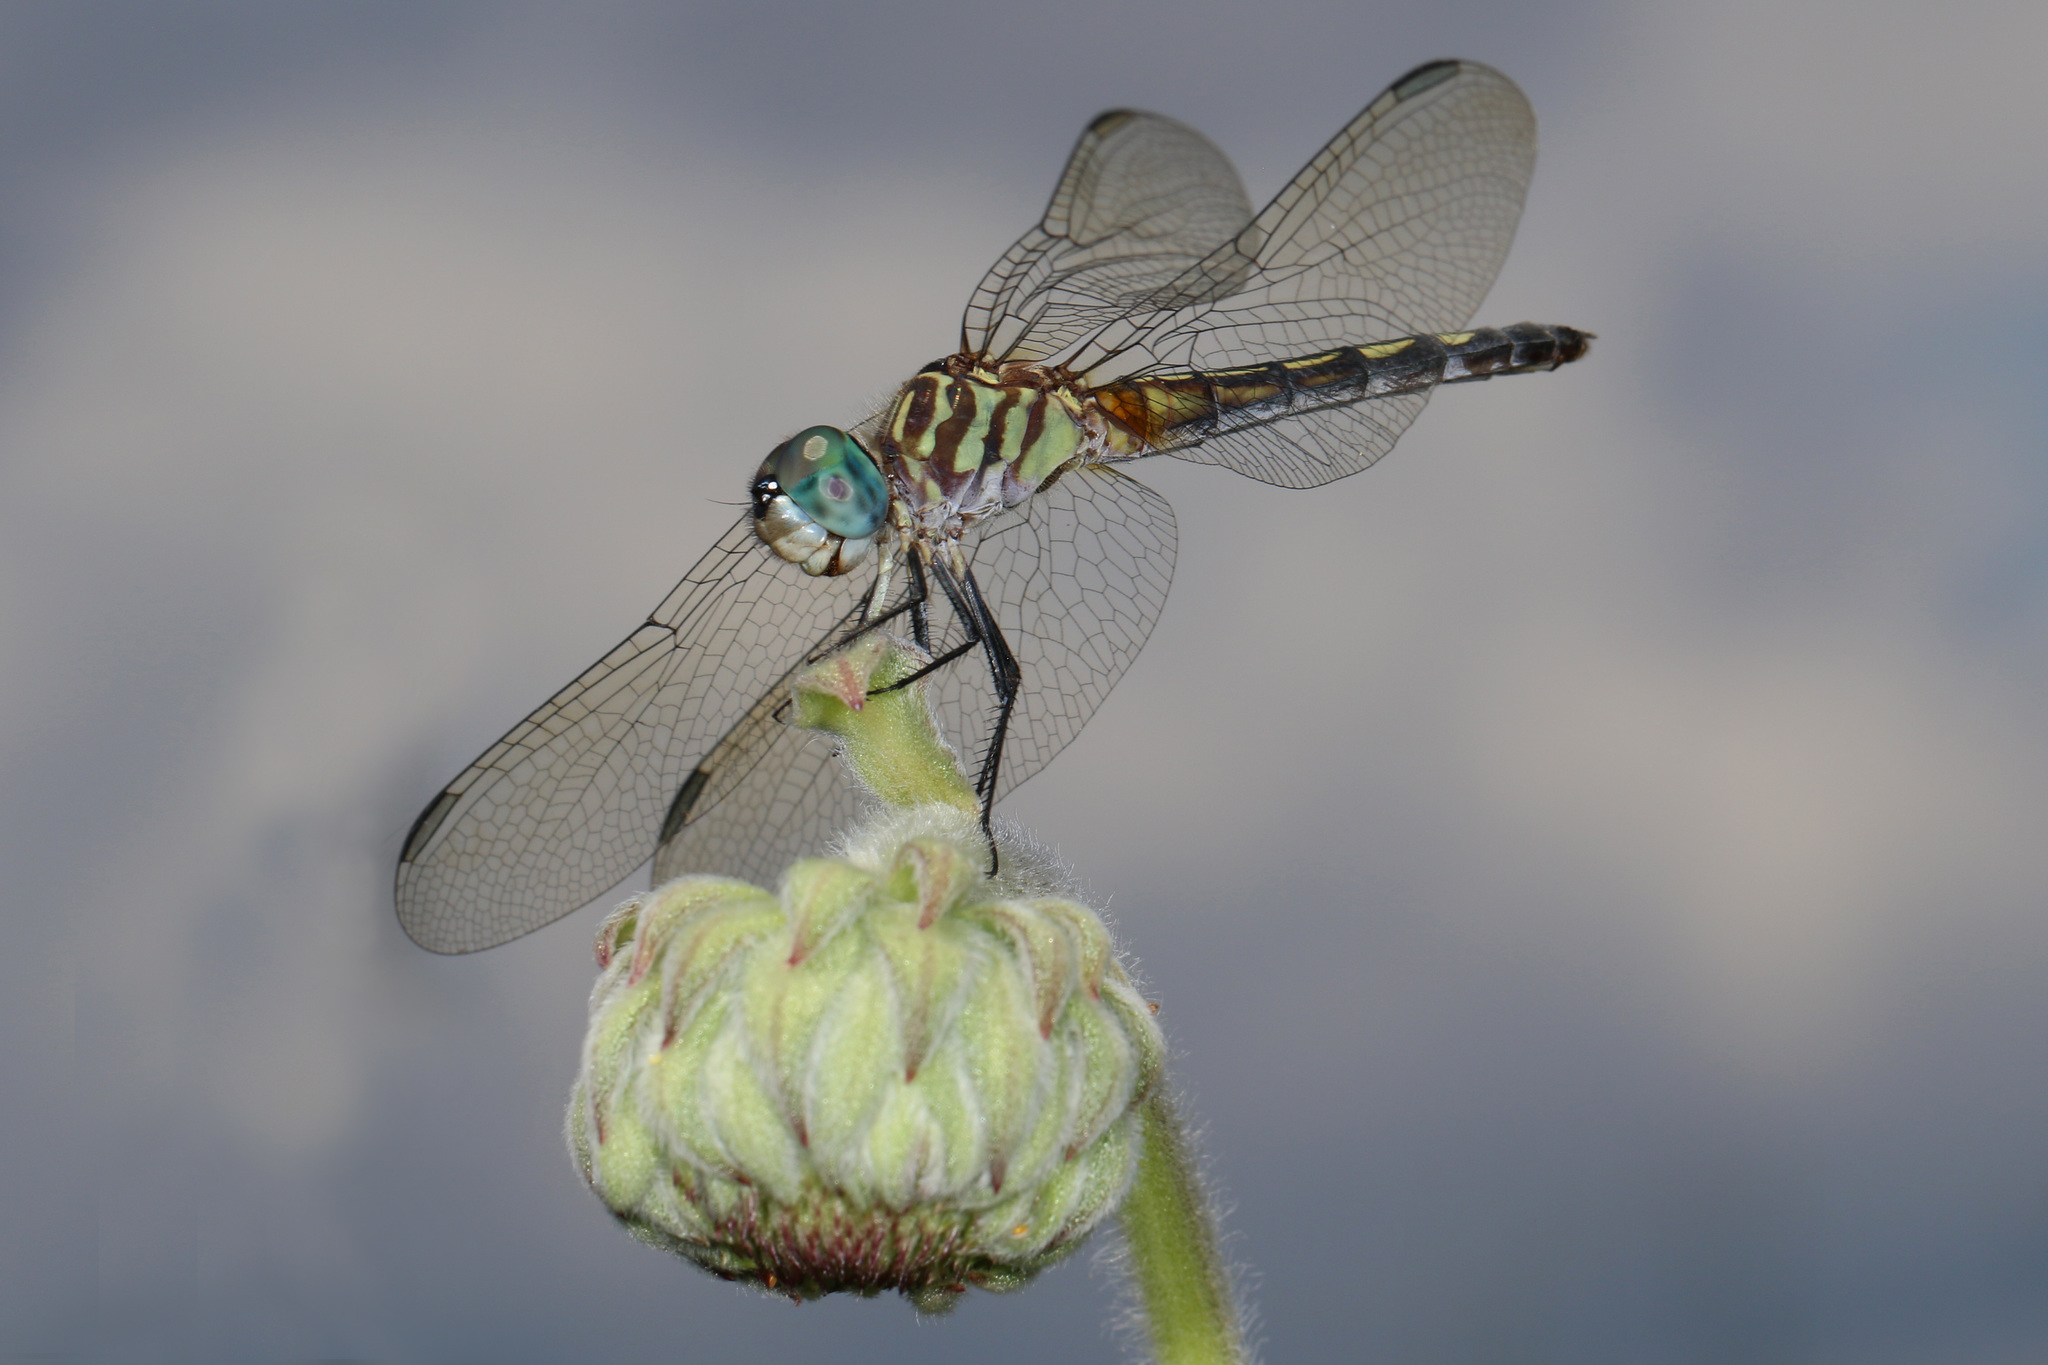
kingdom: Animalia
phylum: Arthropoda
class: Insecta
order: Odonata
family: Libellulidae
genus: Pachydiplax
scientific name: Pachydiplax longipennis
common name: Blue dasher
